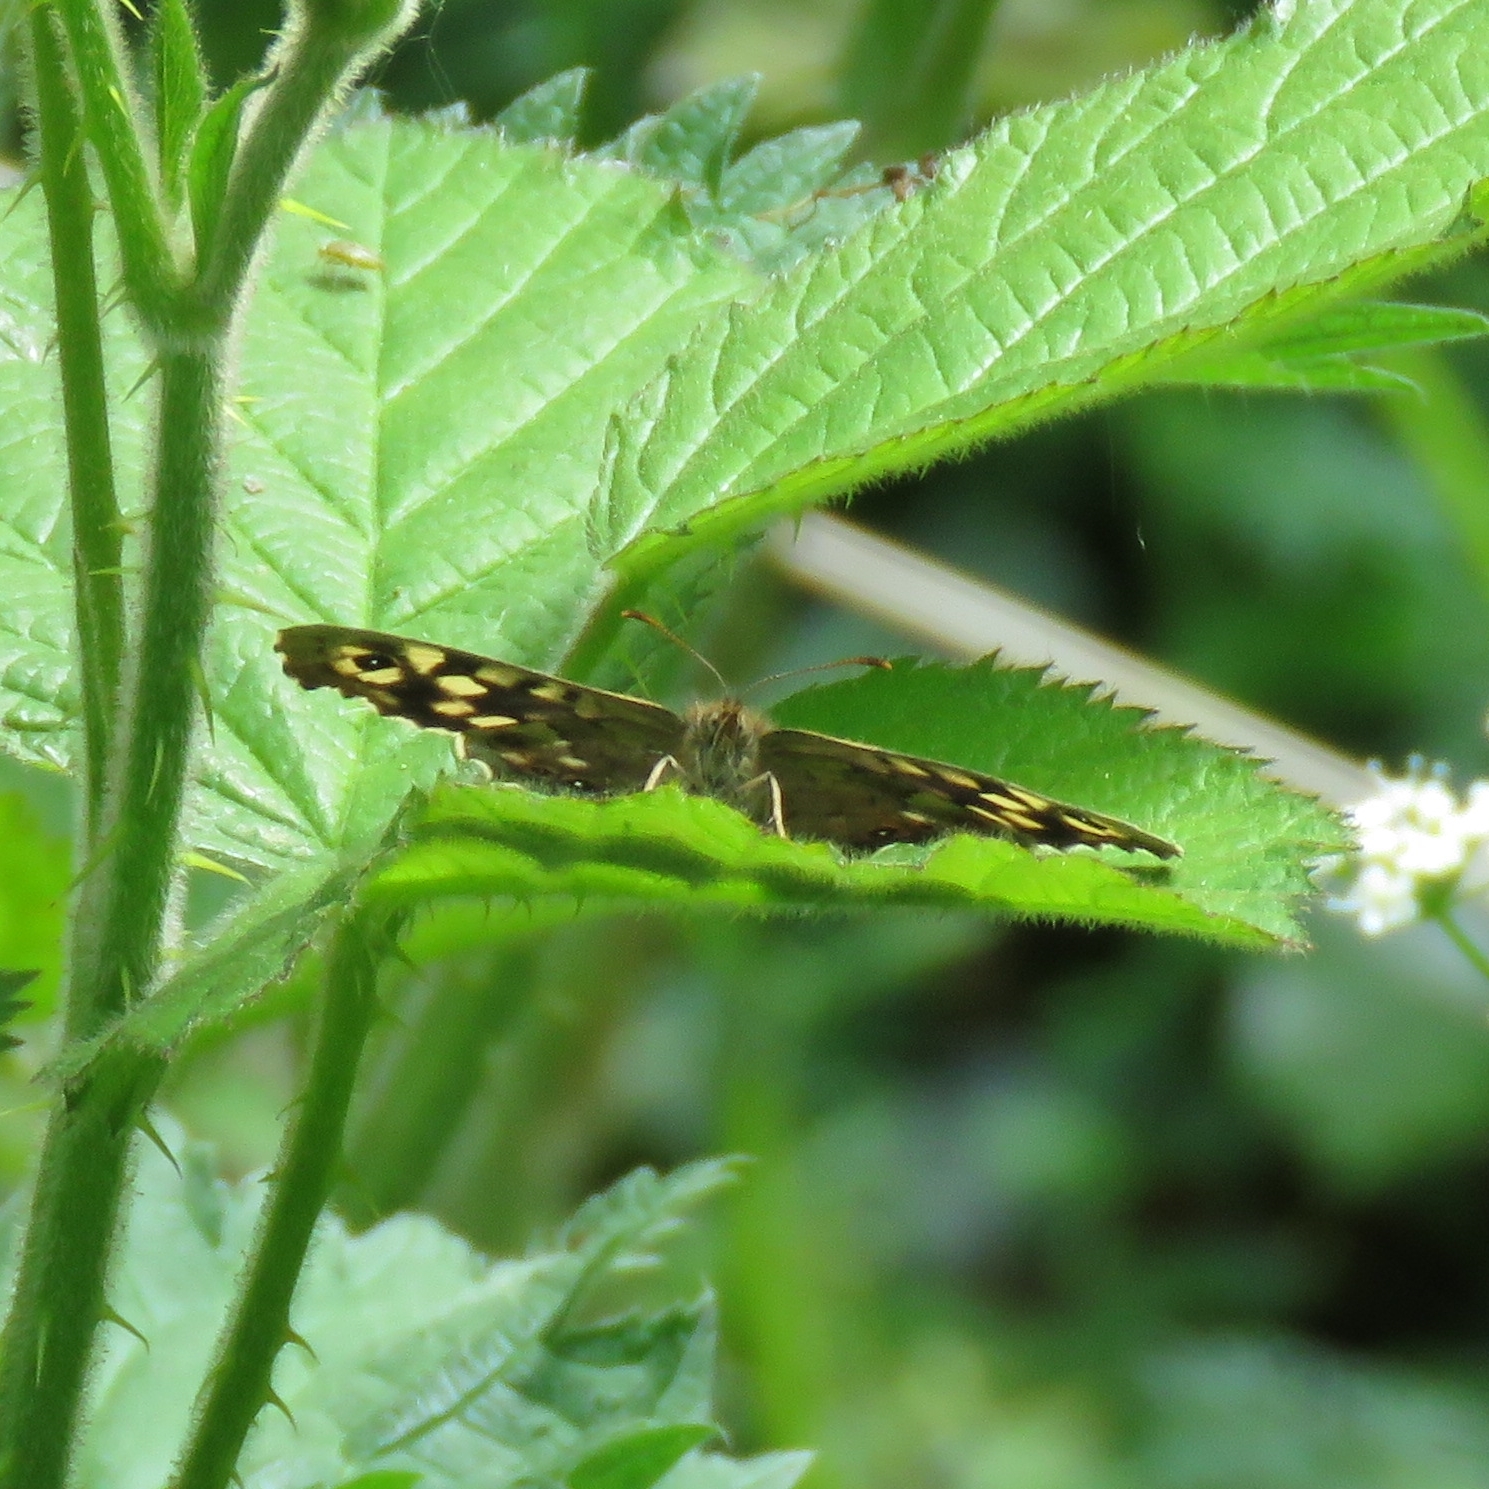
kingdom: Animalia
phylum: Arthropoda
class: Insecta
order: Lepidoptera
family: Nymphalidae
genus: Pararge
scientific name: Pararge aegeria
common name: Speckled wood
